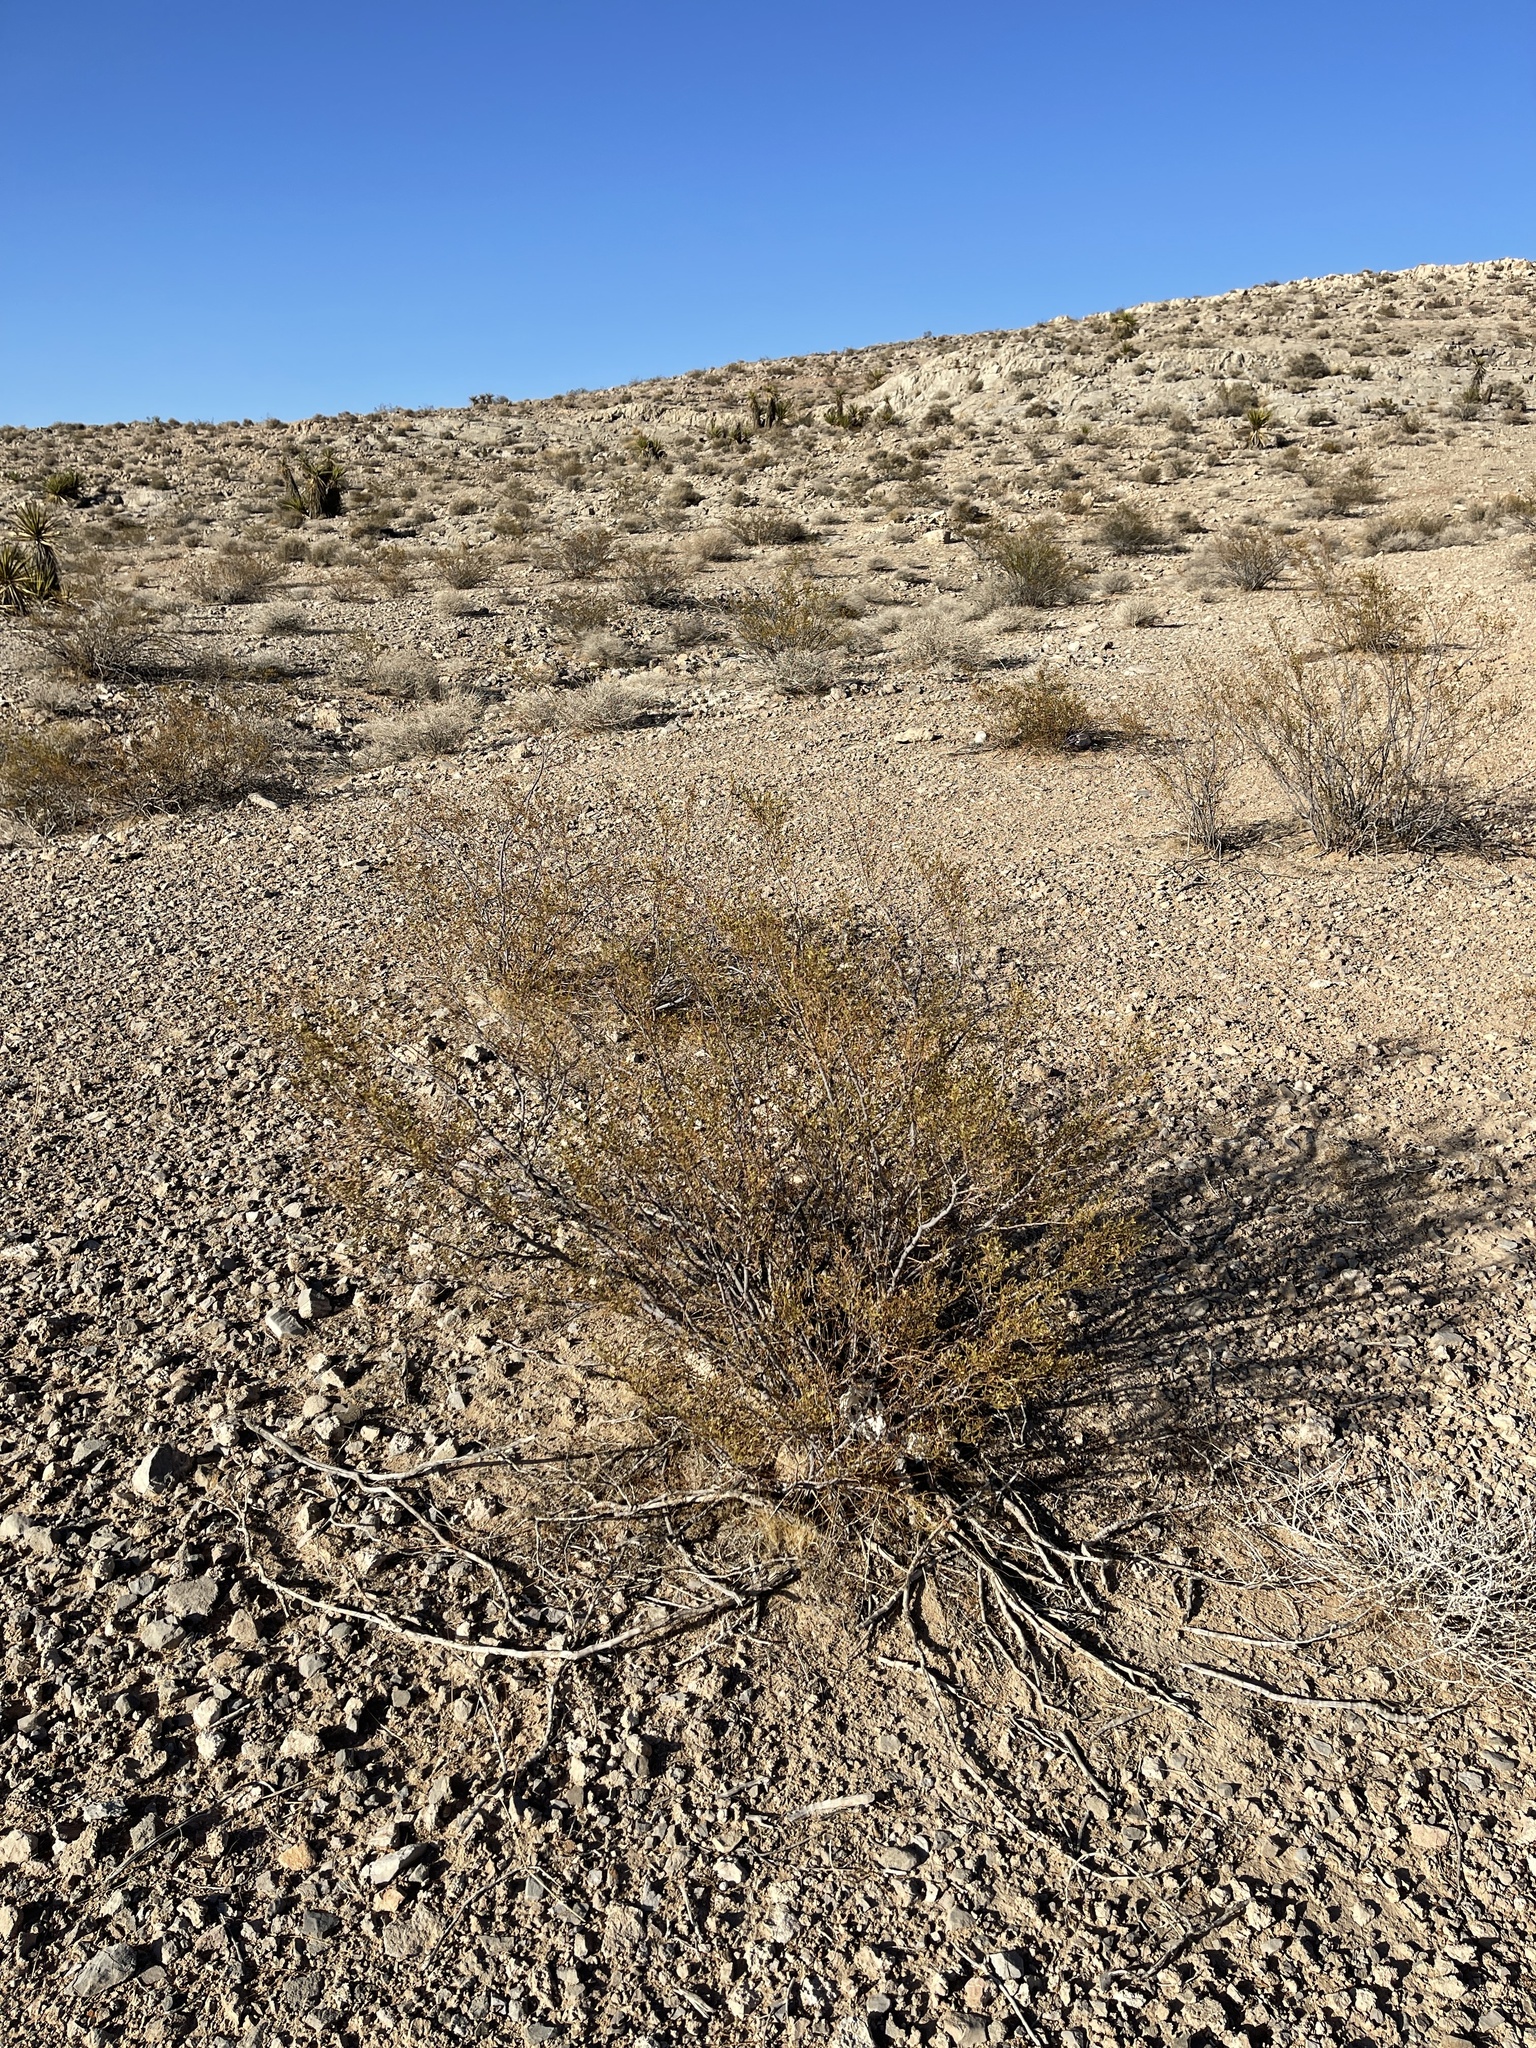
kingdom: Plantae
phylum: Tracheophyta
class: Magnoliopsida
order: Zygophyllales
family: Zygophyllaceae
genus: Larrea
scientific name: Larrea tridentata
